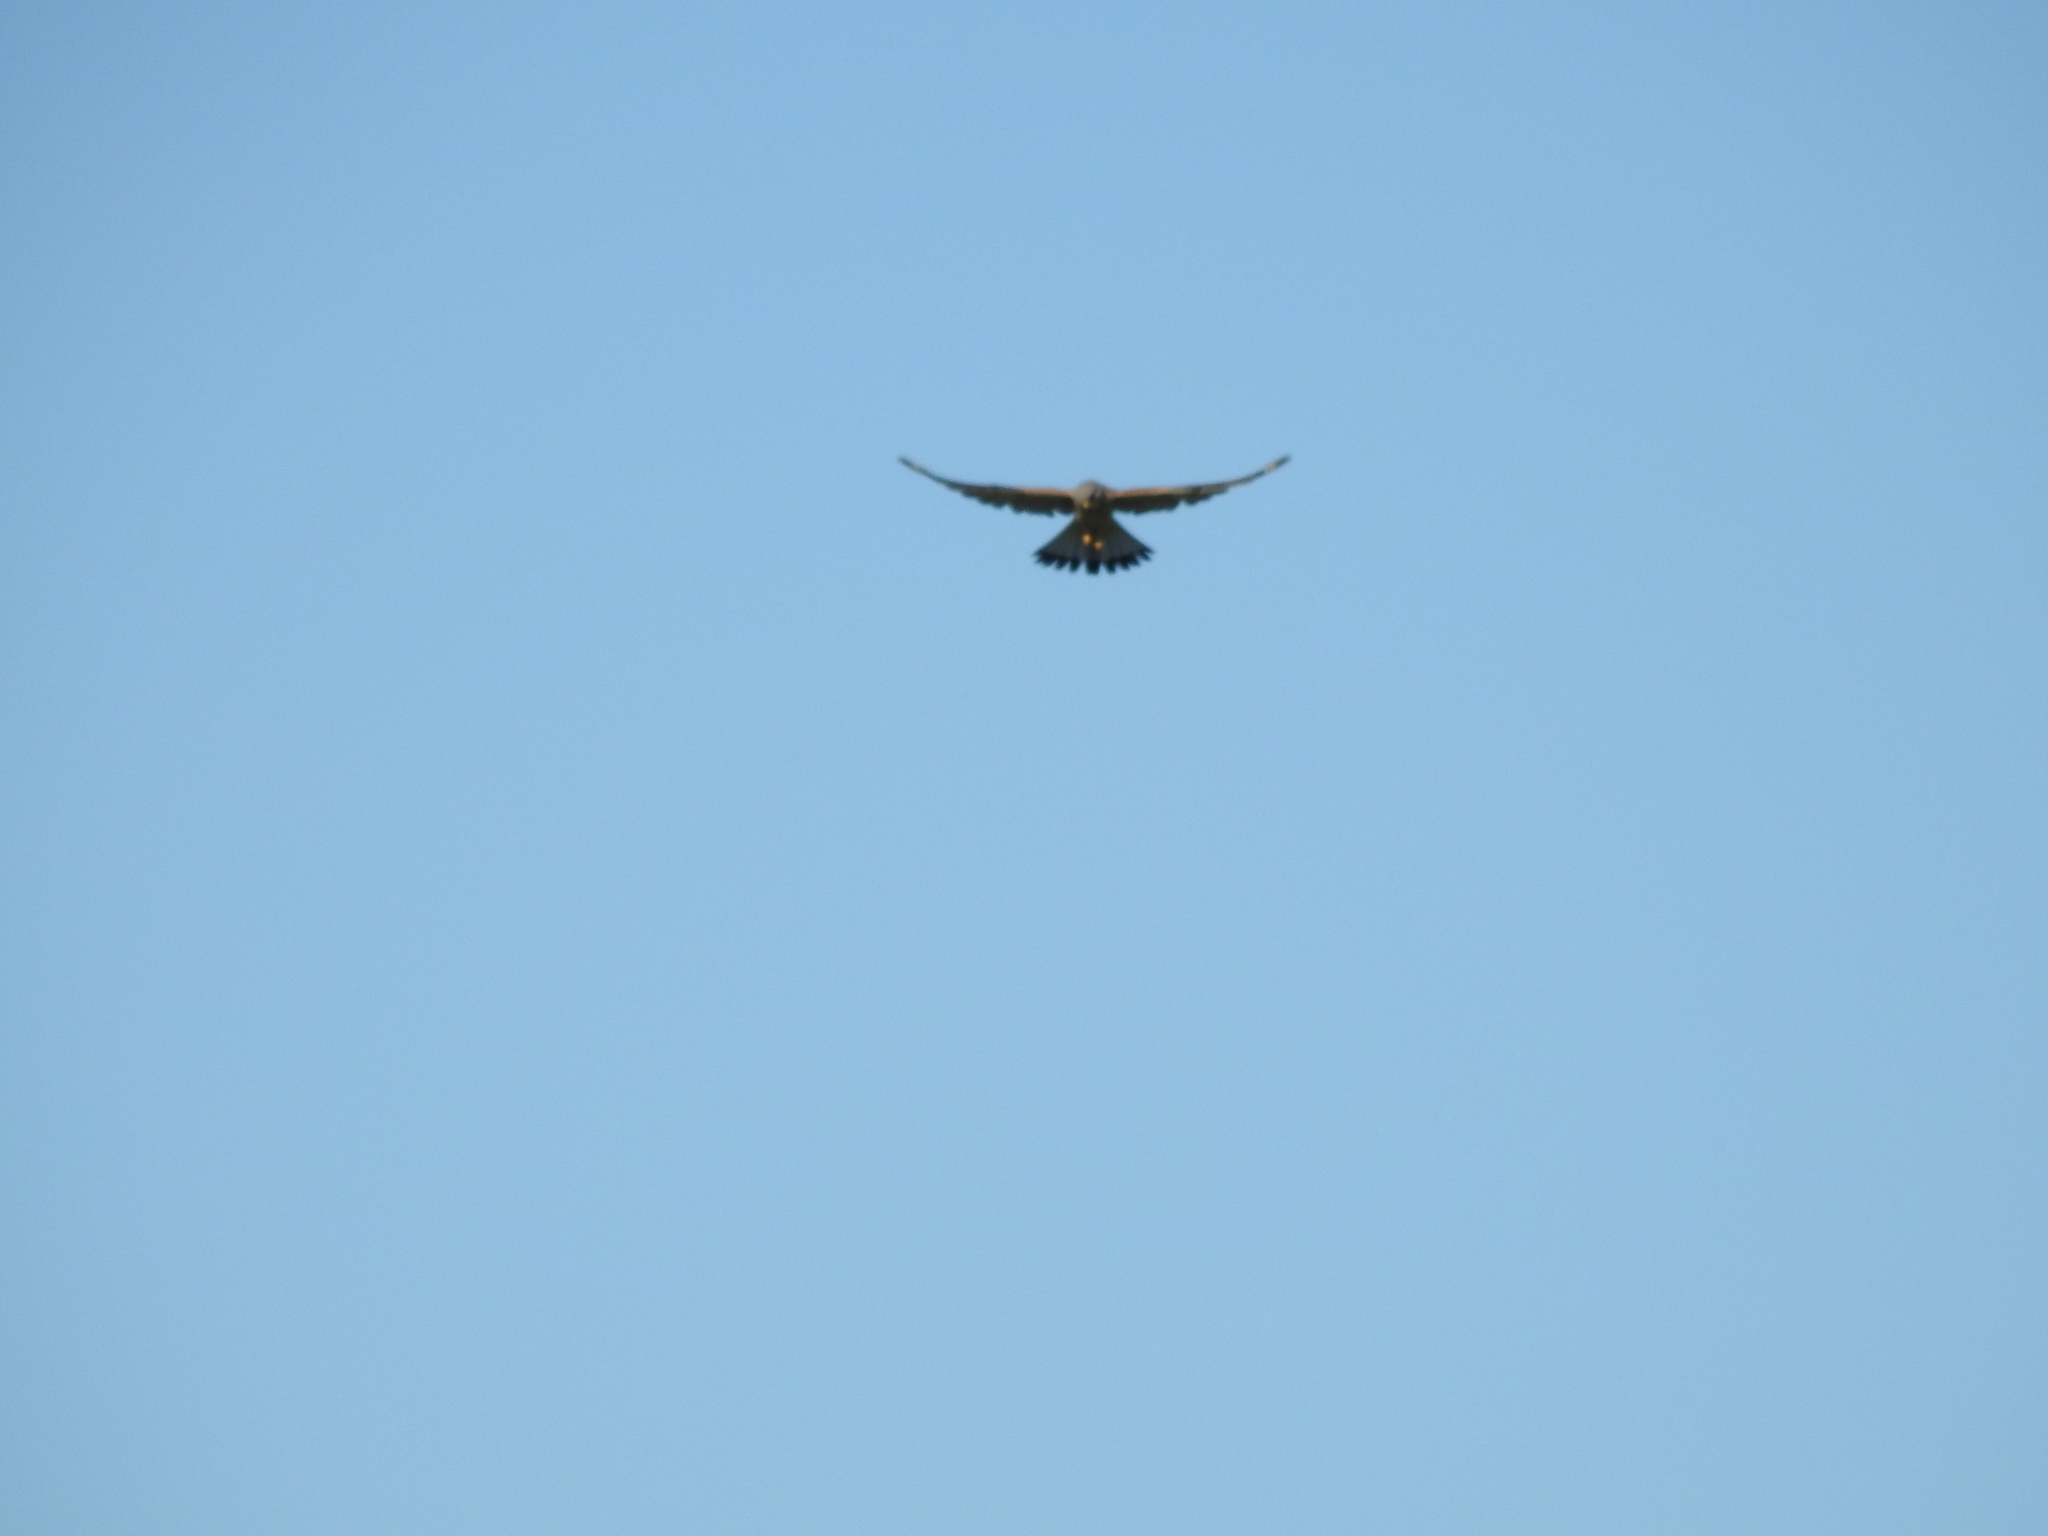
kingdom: Animalia
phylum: Chordata
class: Aves
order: Falconiformes
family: Falconidae
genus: Falco
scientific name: Falco tinnunculus
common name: Common kestrel
